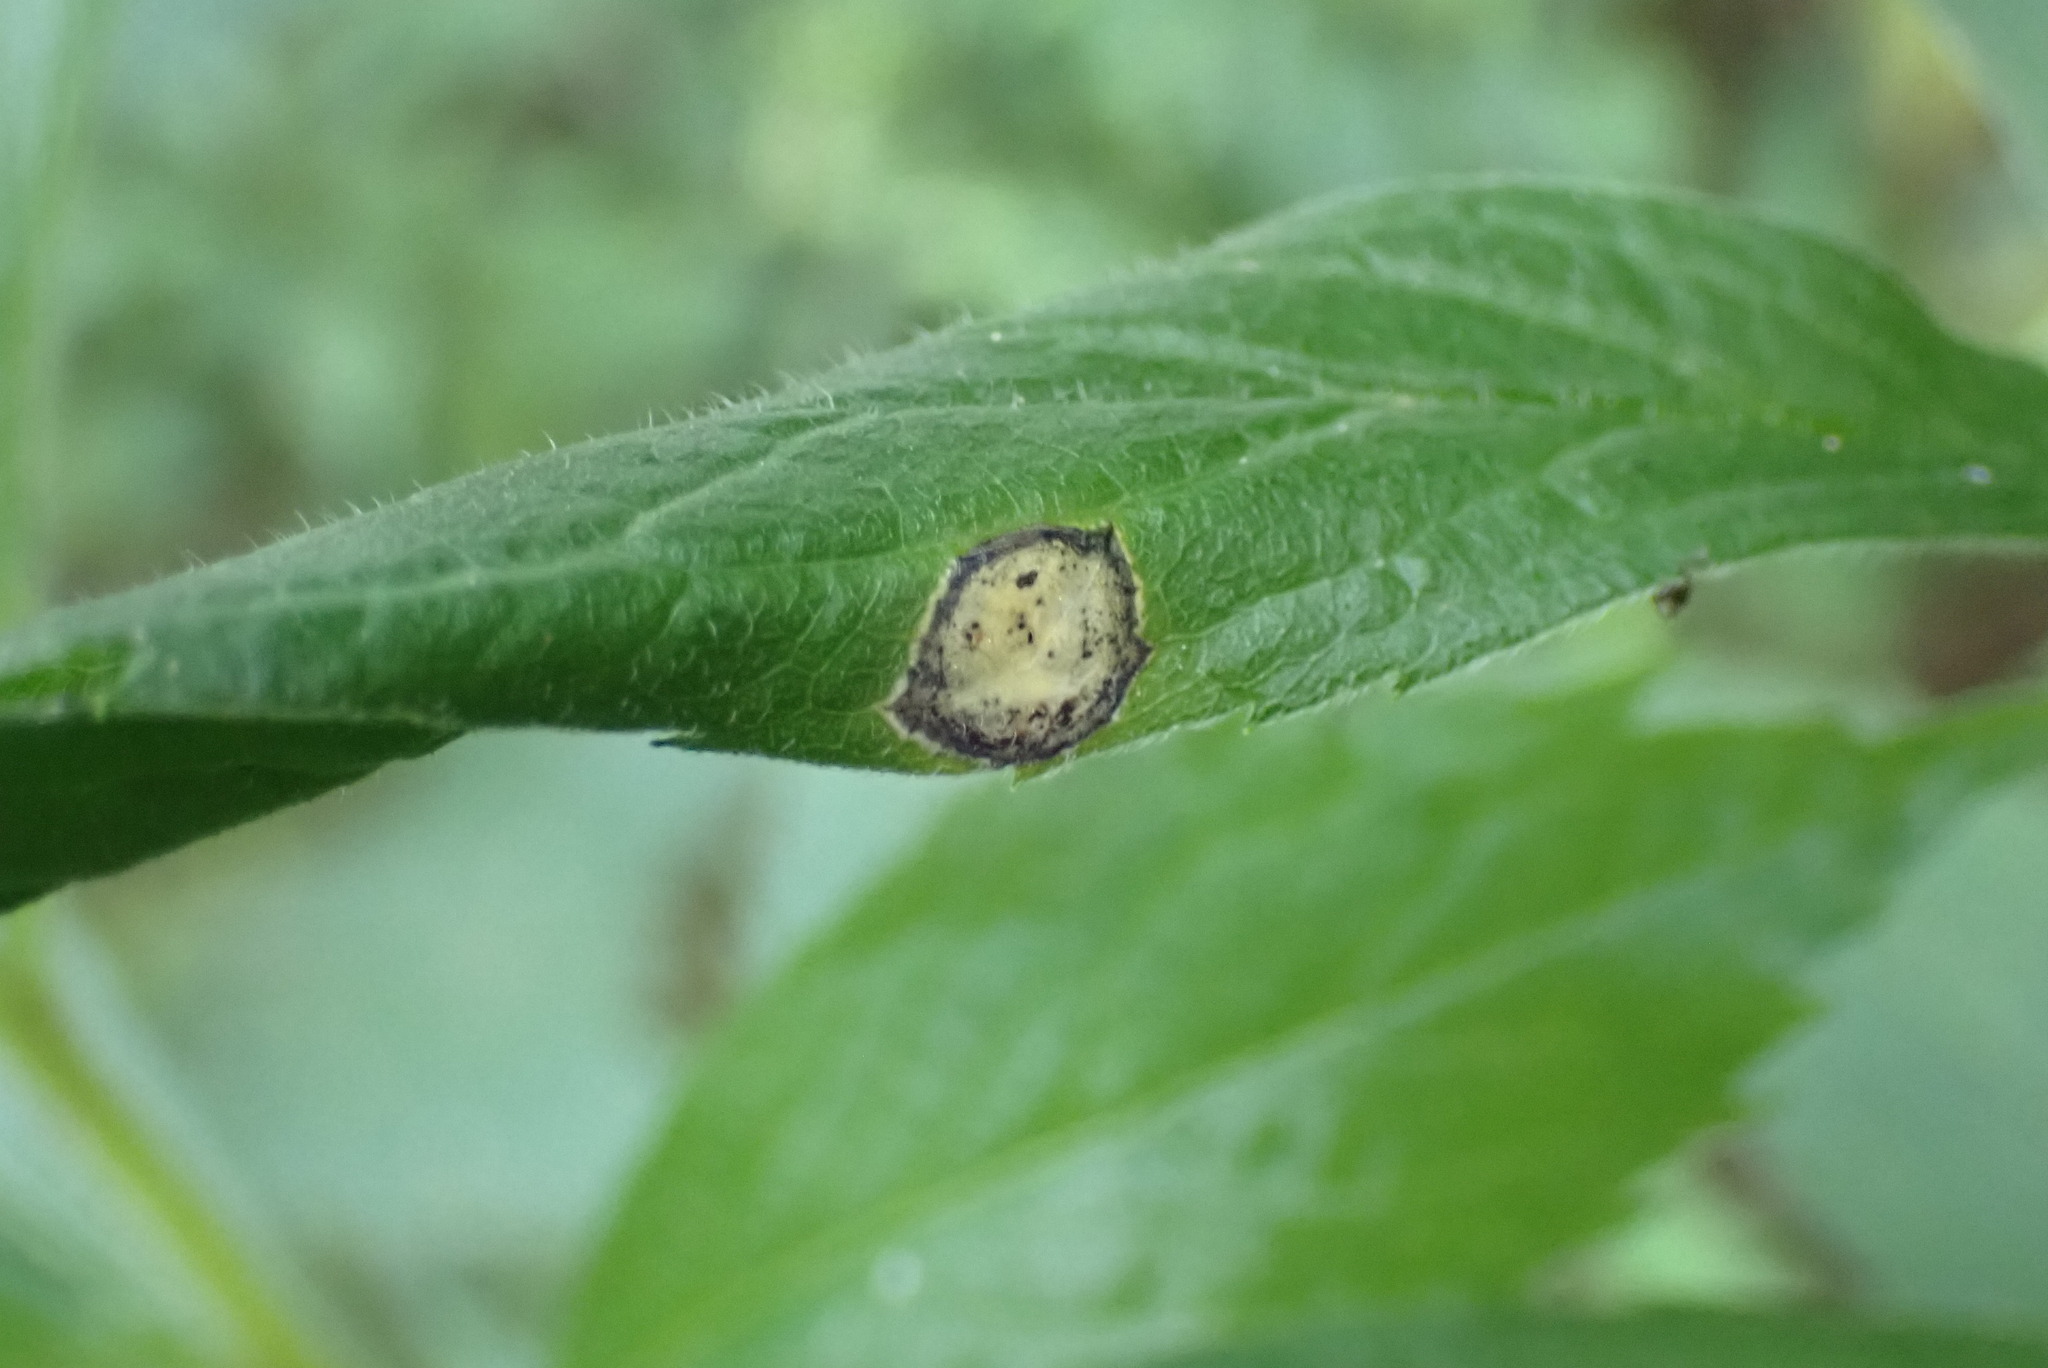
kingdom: Animalia
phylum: Arthropoda
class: Insecta
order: Diptera
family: Cecidomyiidae
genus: Asteromyia
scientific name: Asteromyia carbonifera
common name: Carbonifera goldenrod gall midge
